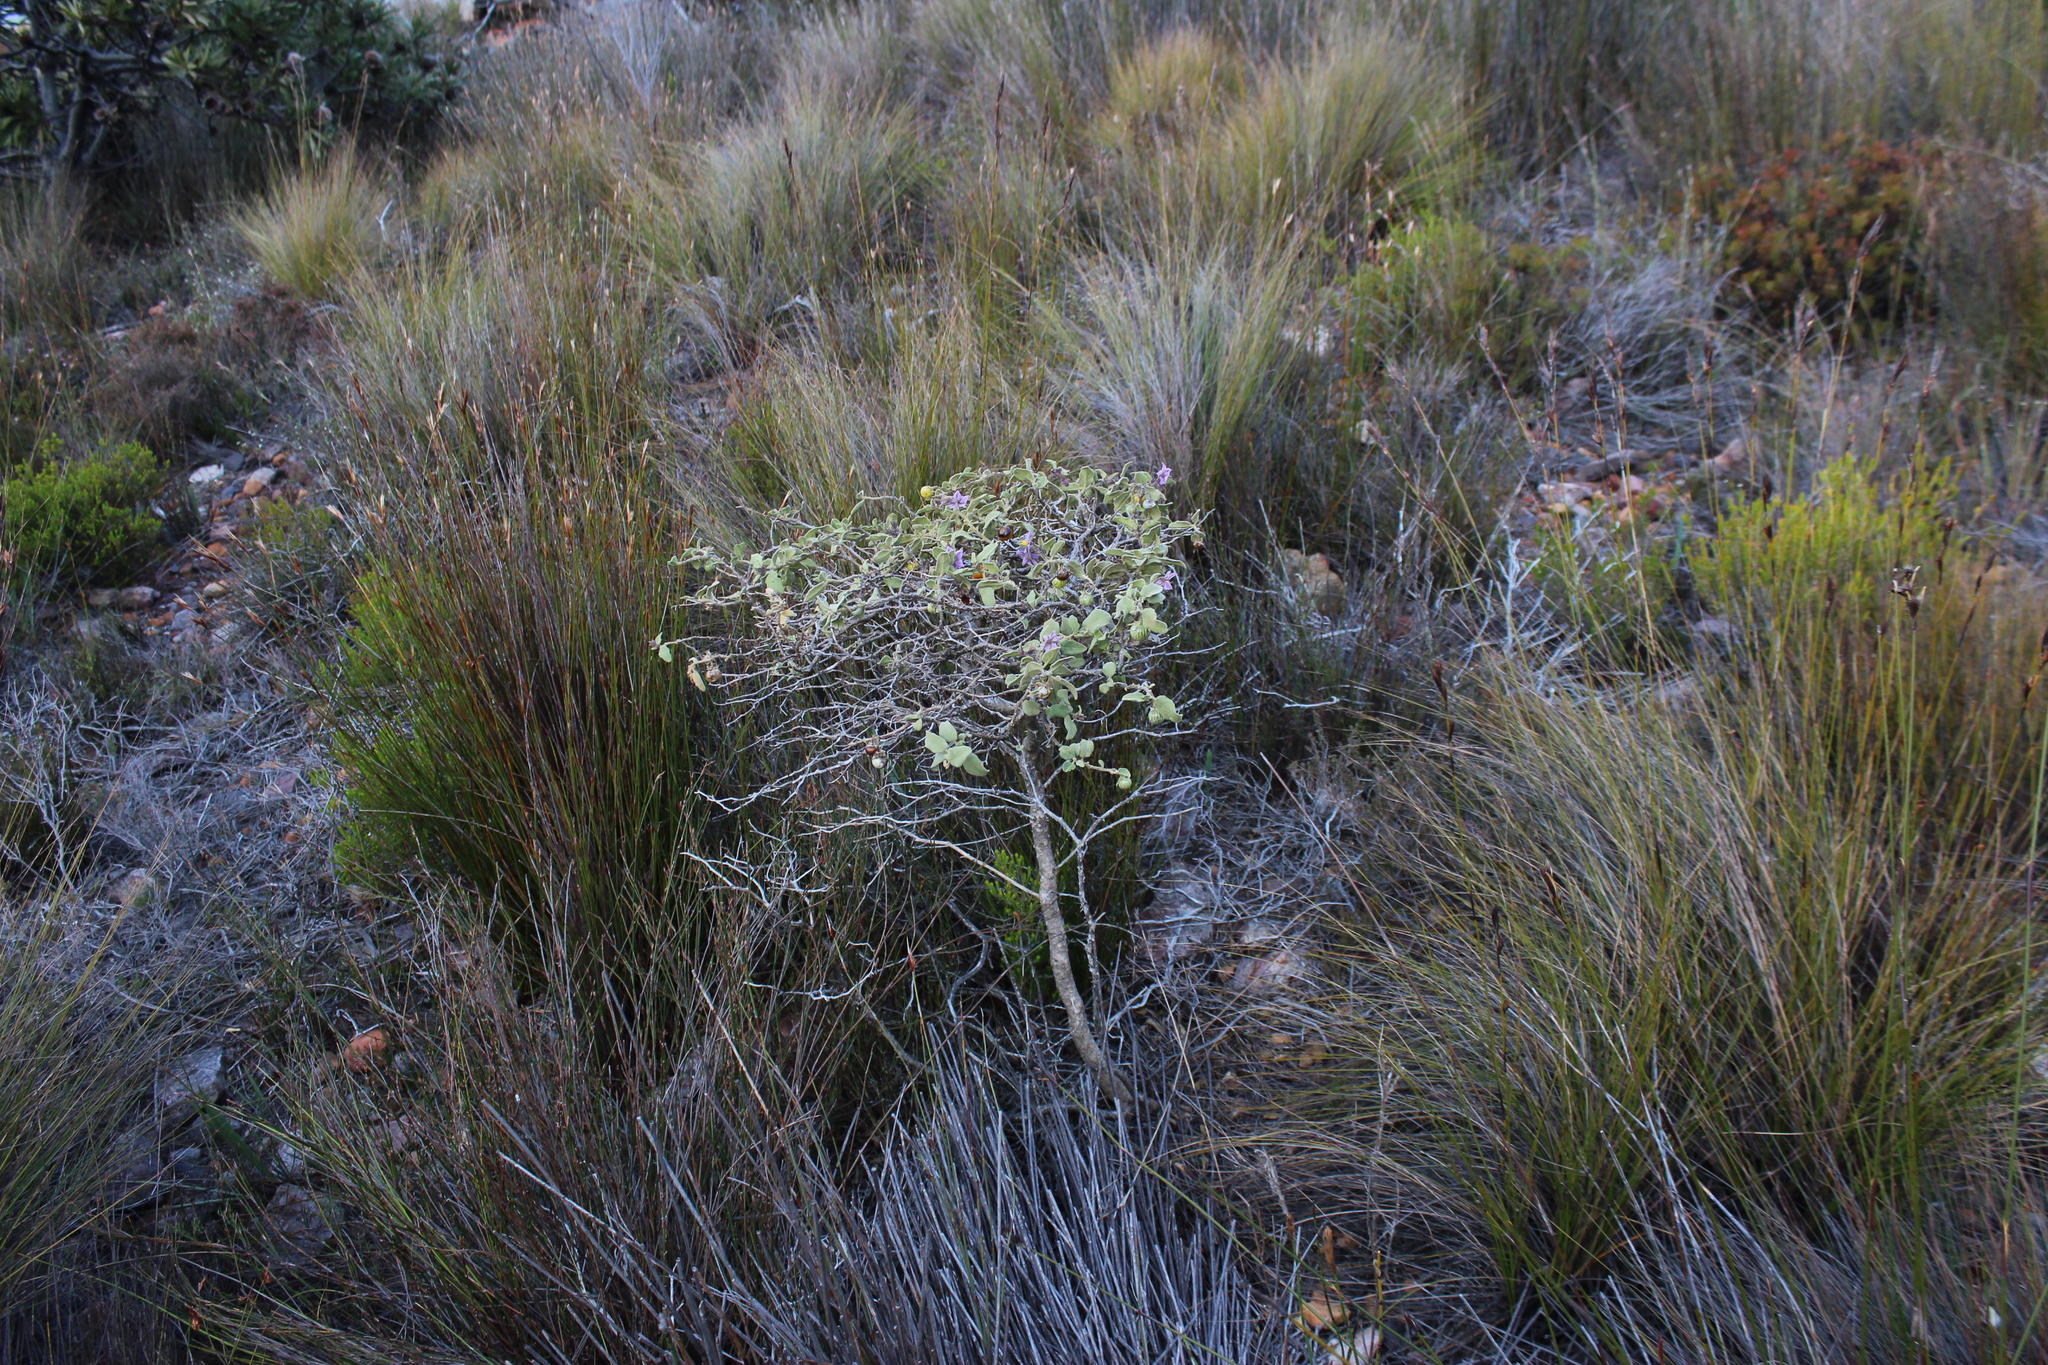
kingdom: Plantae
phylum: Tracheophyta
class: Magnoliopsida
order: Solanales
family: Solanaceae
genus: Solanum
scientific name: Solanum tomentosum
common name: Wild aubergine
